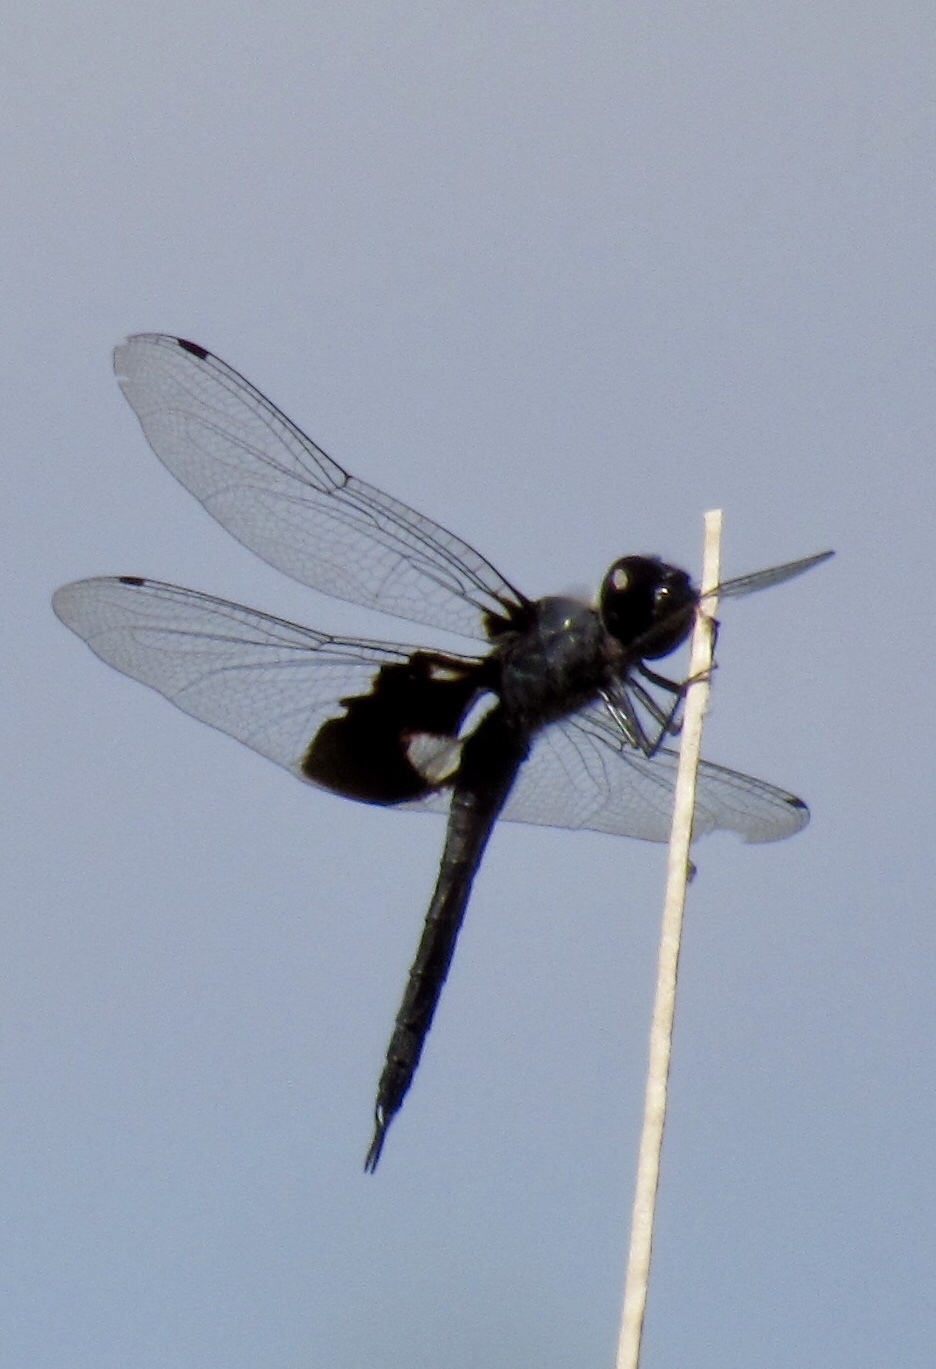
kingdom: Animalia
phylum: Arthropoda
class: Insecta
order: Odonata
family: Libellulidae
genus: Tramea
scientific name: Tramea lacerata
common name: Black saddlebags
